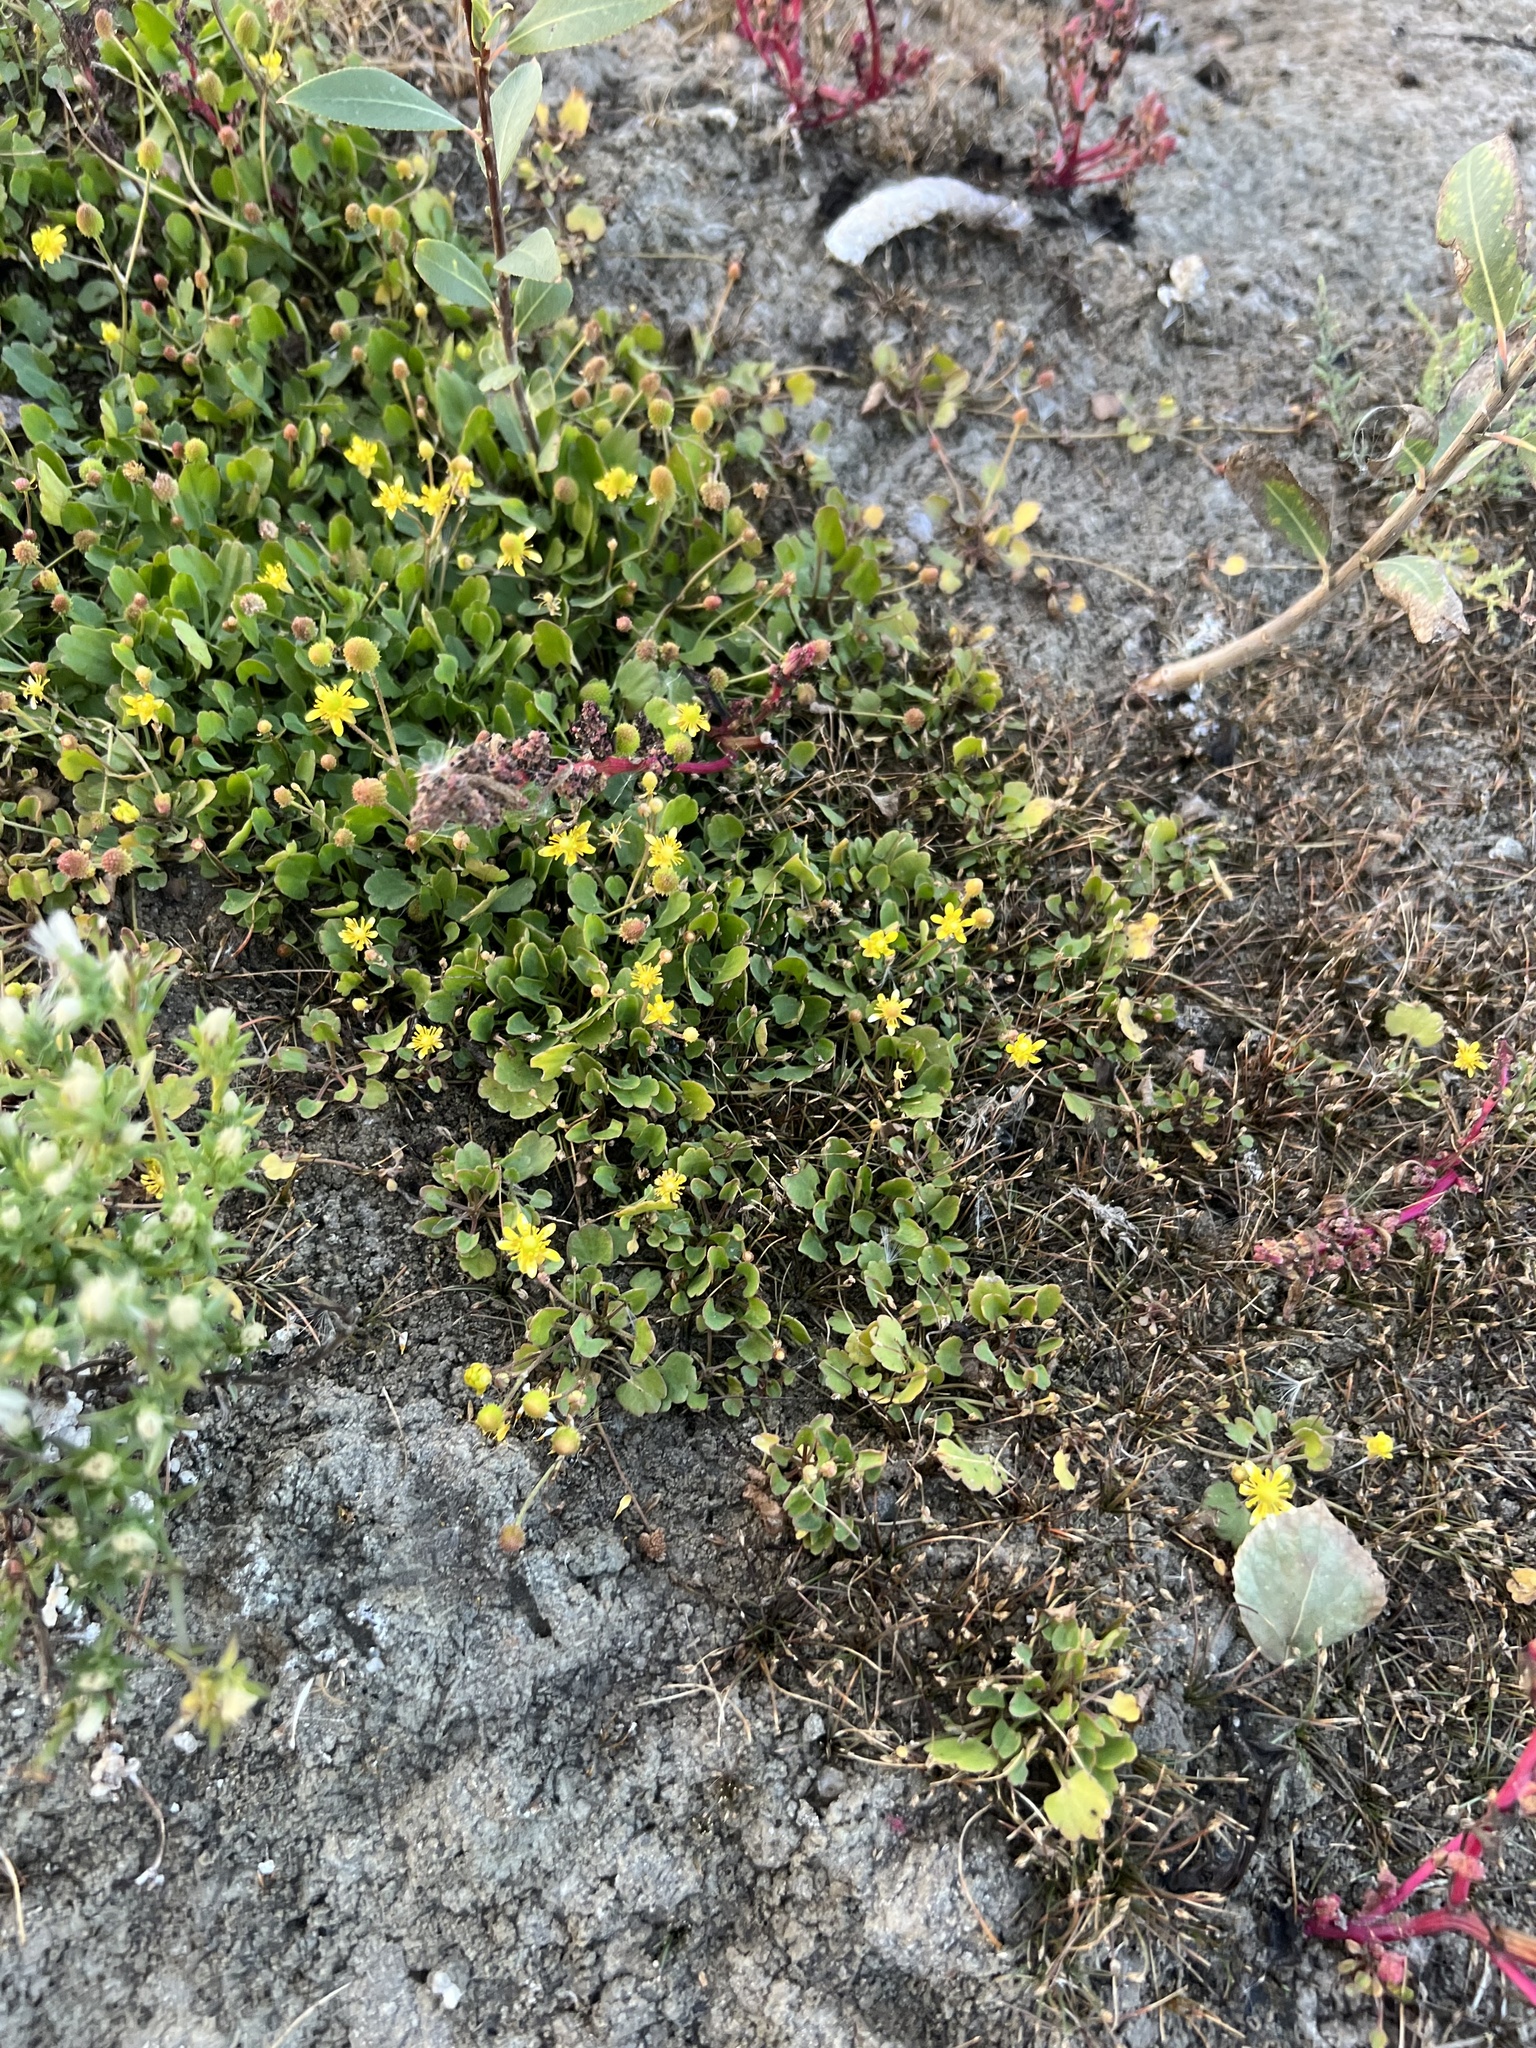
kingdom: Plantae
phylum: Tracheophyta
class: Magnoliopsida
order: Ranunculales
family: Ranunculaceae
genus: Halerpestes
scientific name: Halerpestes cymbalaria
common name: Seaside crowfoot
